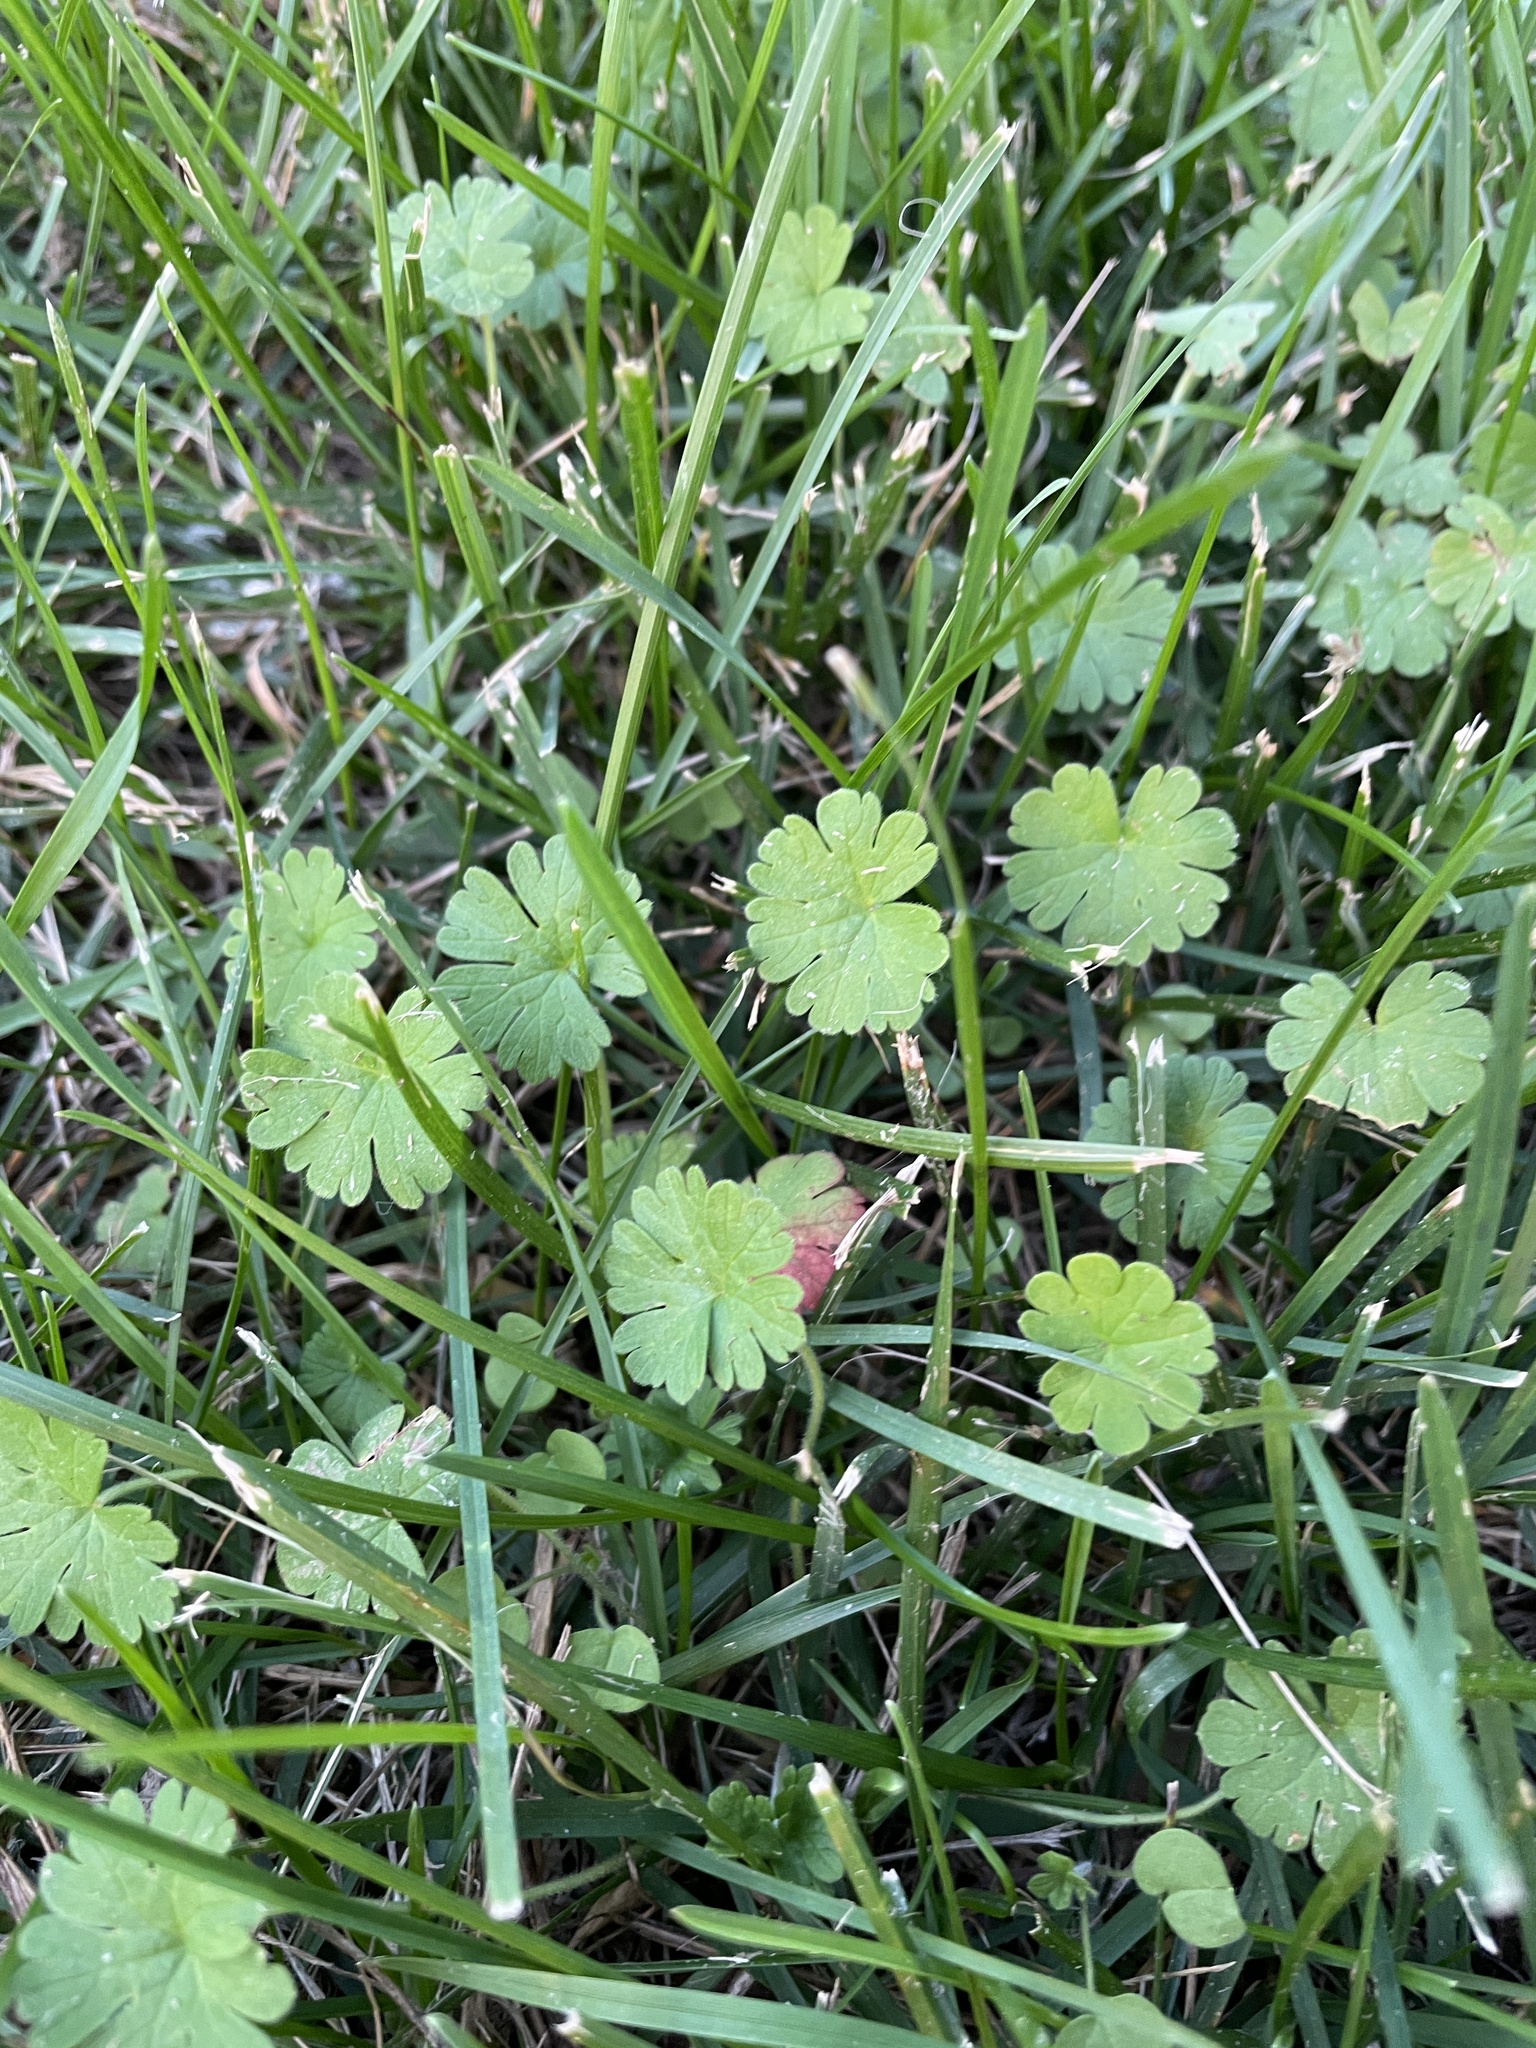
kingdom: Plantae
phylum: Tracheophyta
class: Magnoliopsida
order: Geraniales
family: Geraniaceae
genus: Geranium
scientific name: Geranium
